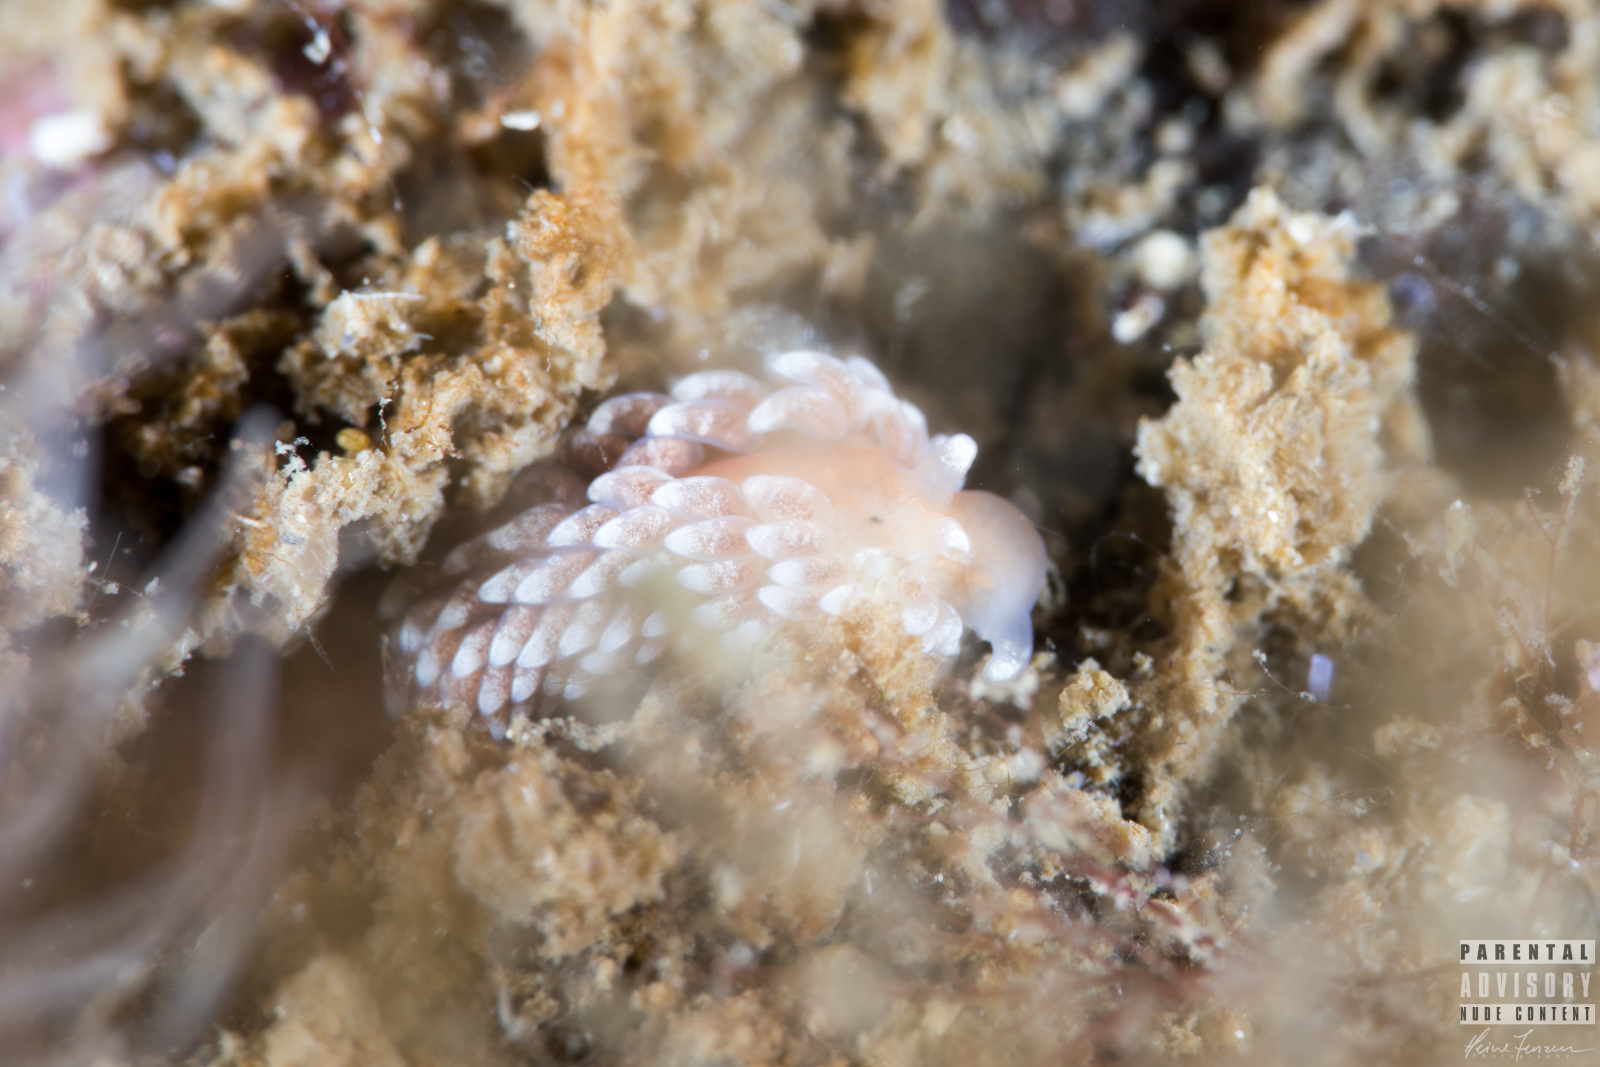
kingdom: Animalia
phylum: Mollusca
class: Gastropoda
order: Nudibranchia
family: Aeolidiidae
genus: Aeolidiella
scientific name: Aeolidiella glauca
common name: Orange-brown aeolid
